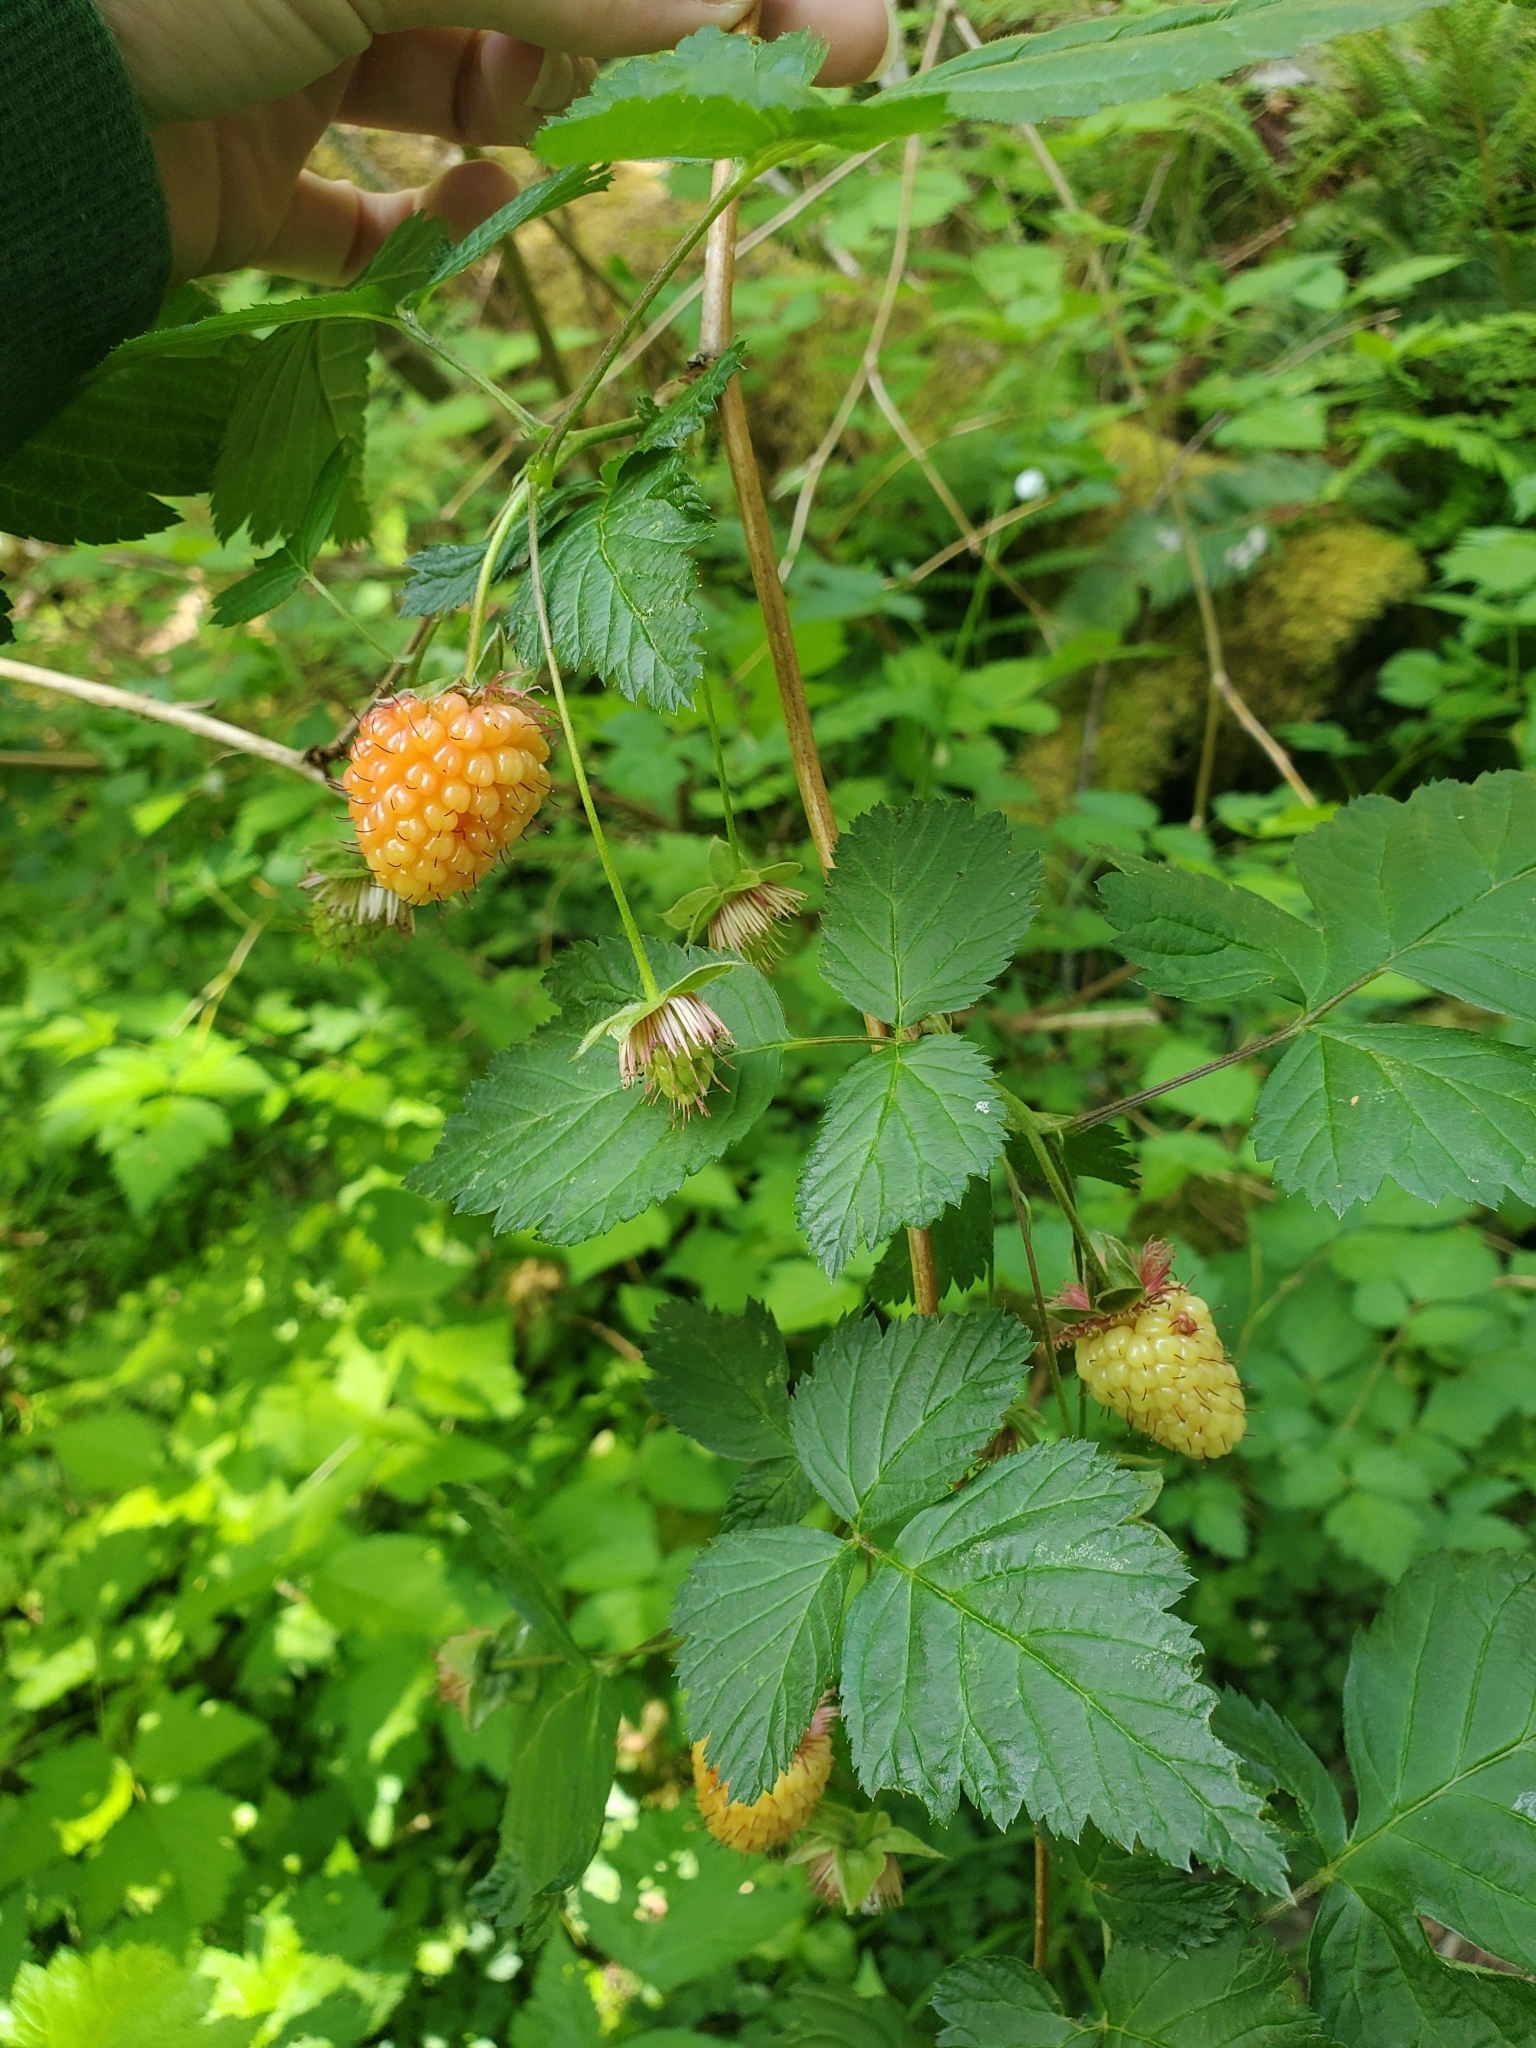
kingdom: Plantae
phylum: Tracheophyta
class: Magnoliopsida
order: Rosales
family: Rosaceae
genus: Rubus
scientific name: Rubus spectabilis
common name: Salmonberry
